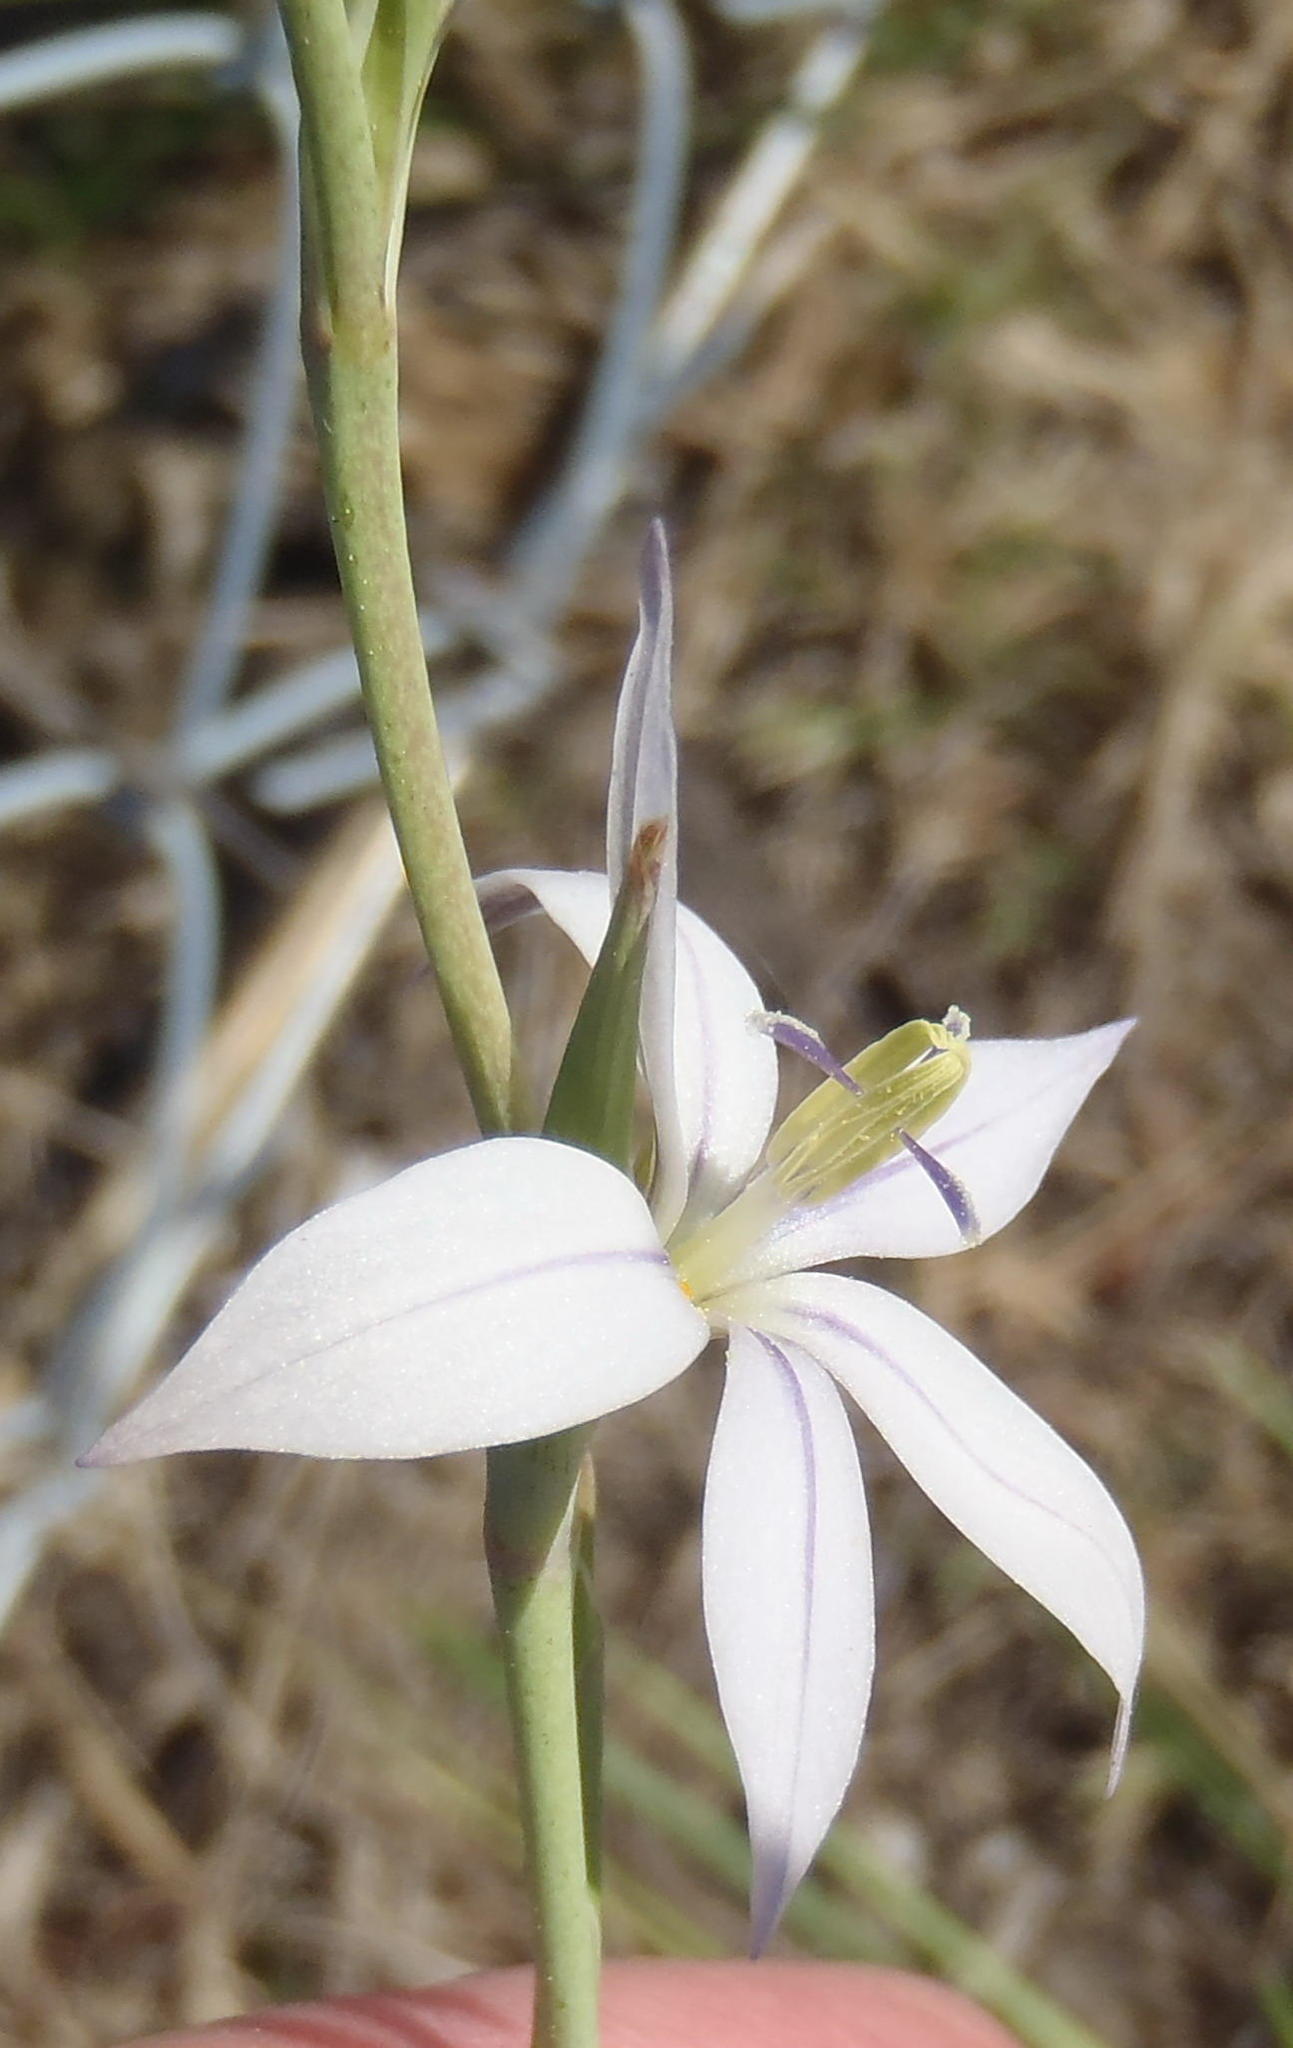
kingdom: Plantae
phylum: Tracheophyta
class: Liliopsida
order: Asparagales
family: Iridaceae
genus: Gladiolus
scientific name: Gladiolus stellatus
